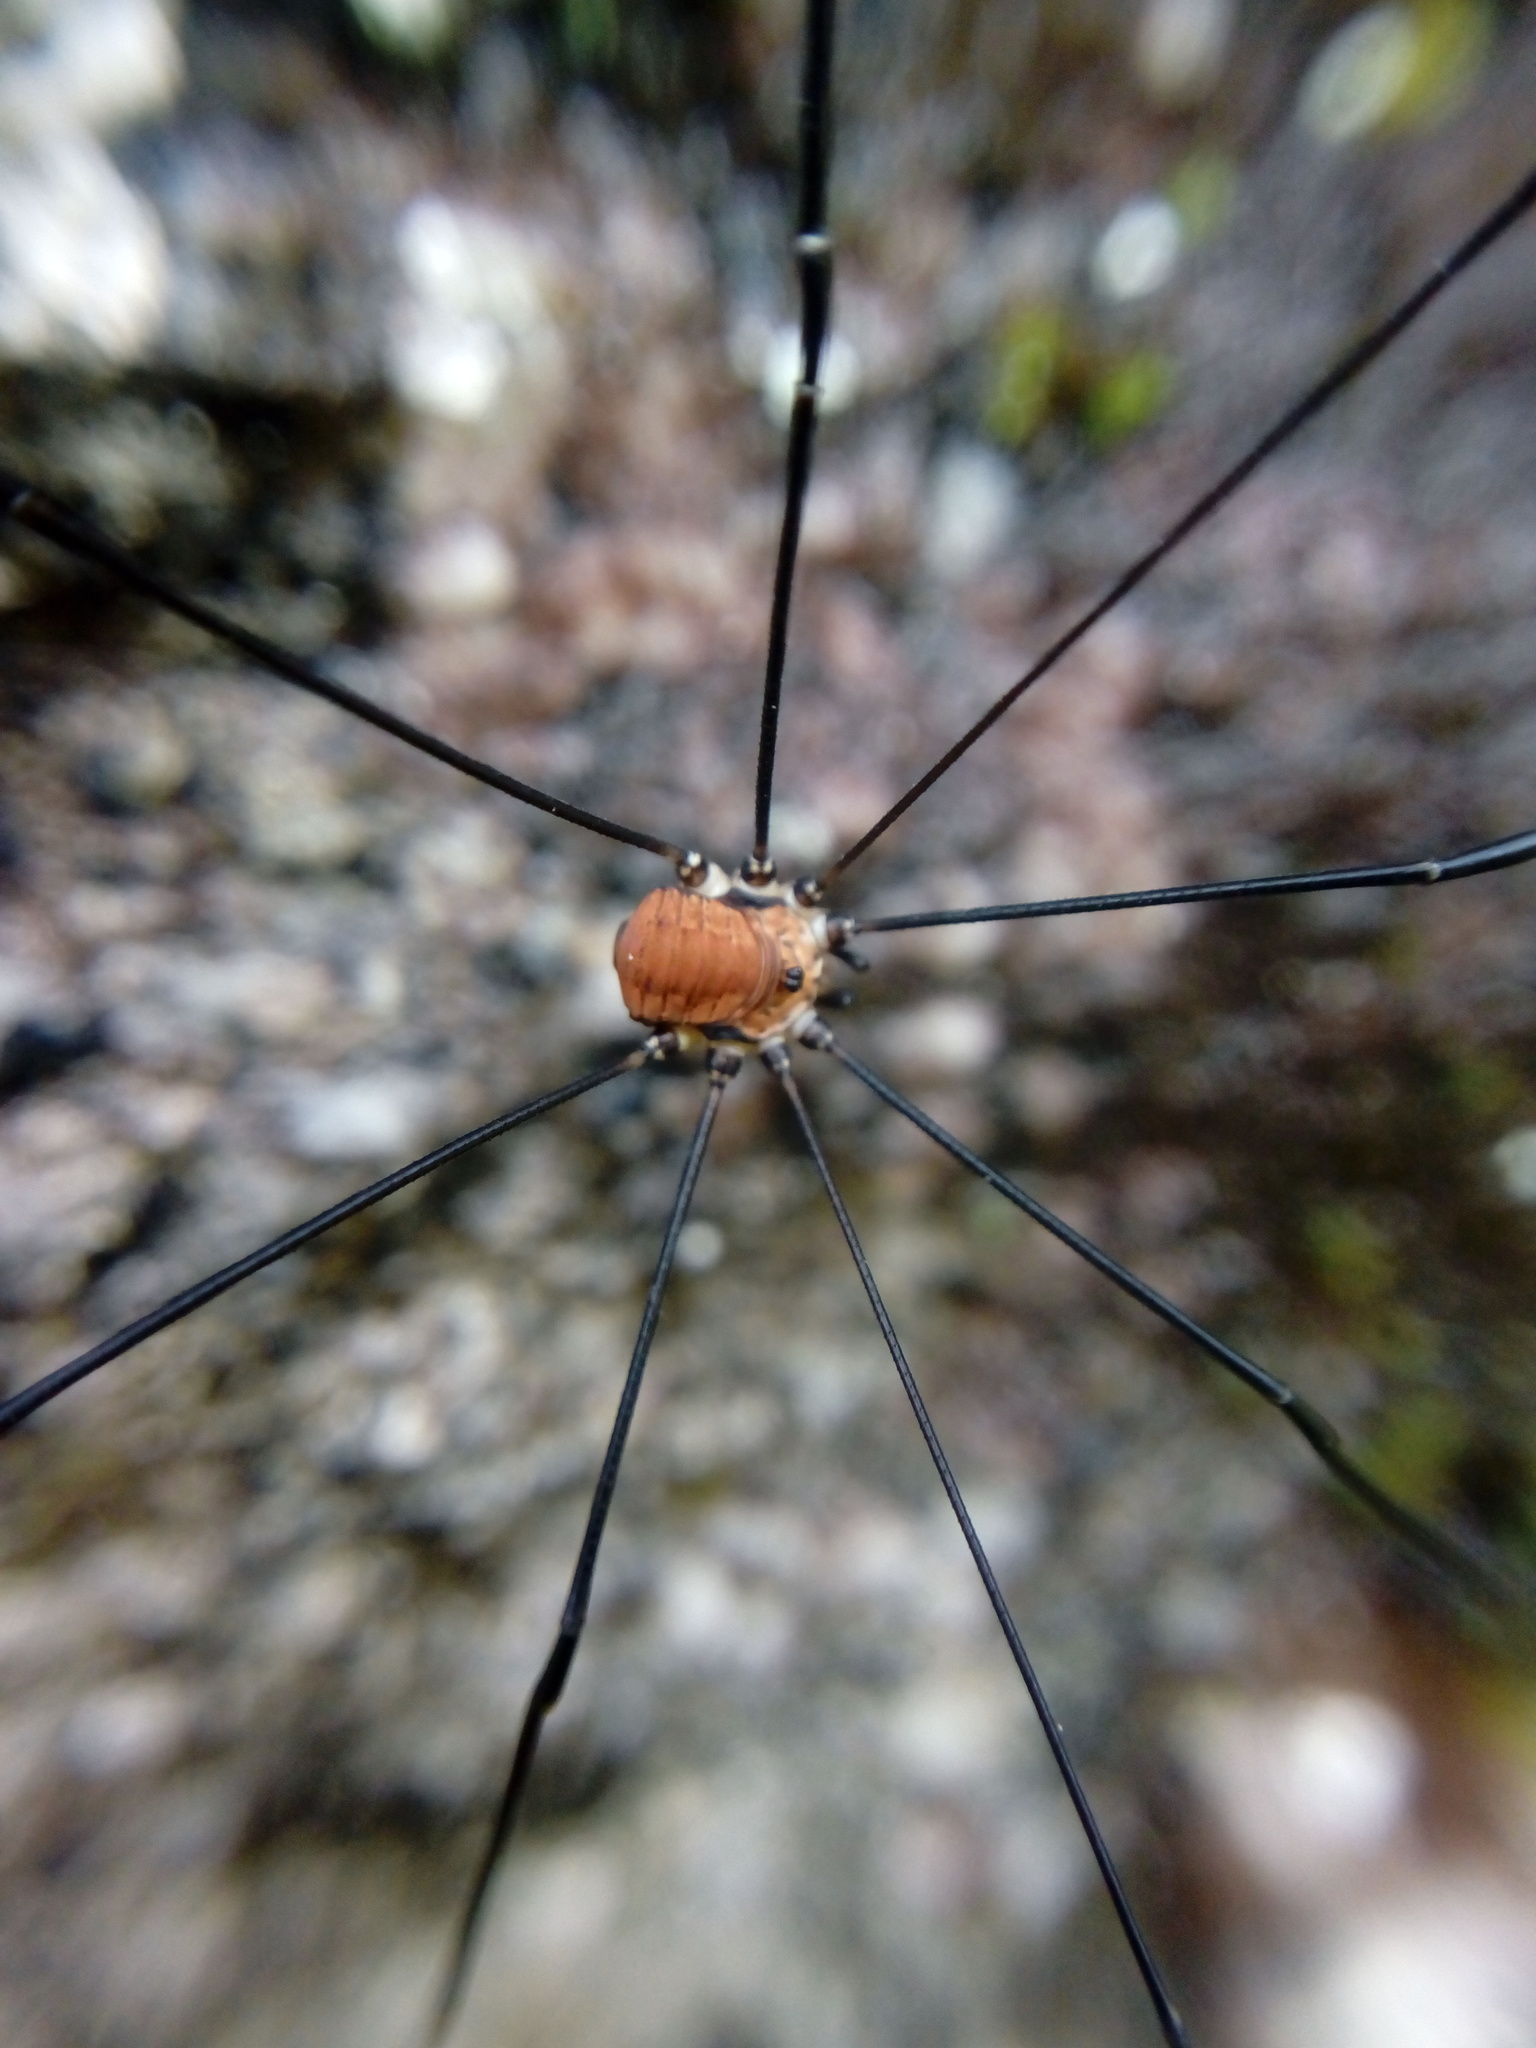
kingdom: Animalia
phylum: Arthropoda
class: Arachnida
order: Opiliones
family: Sclerosomatidae
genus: Leiobunum
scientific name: Leiobunum limbatum
